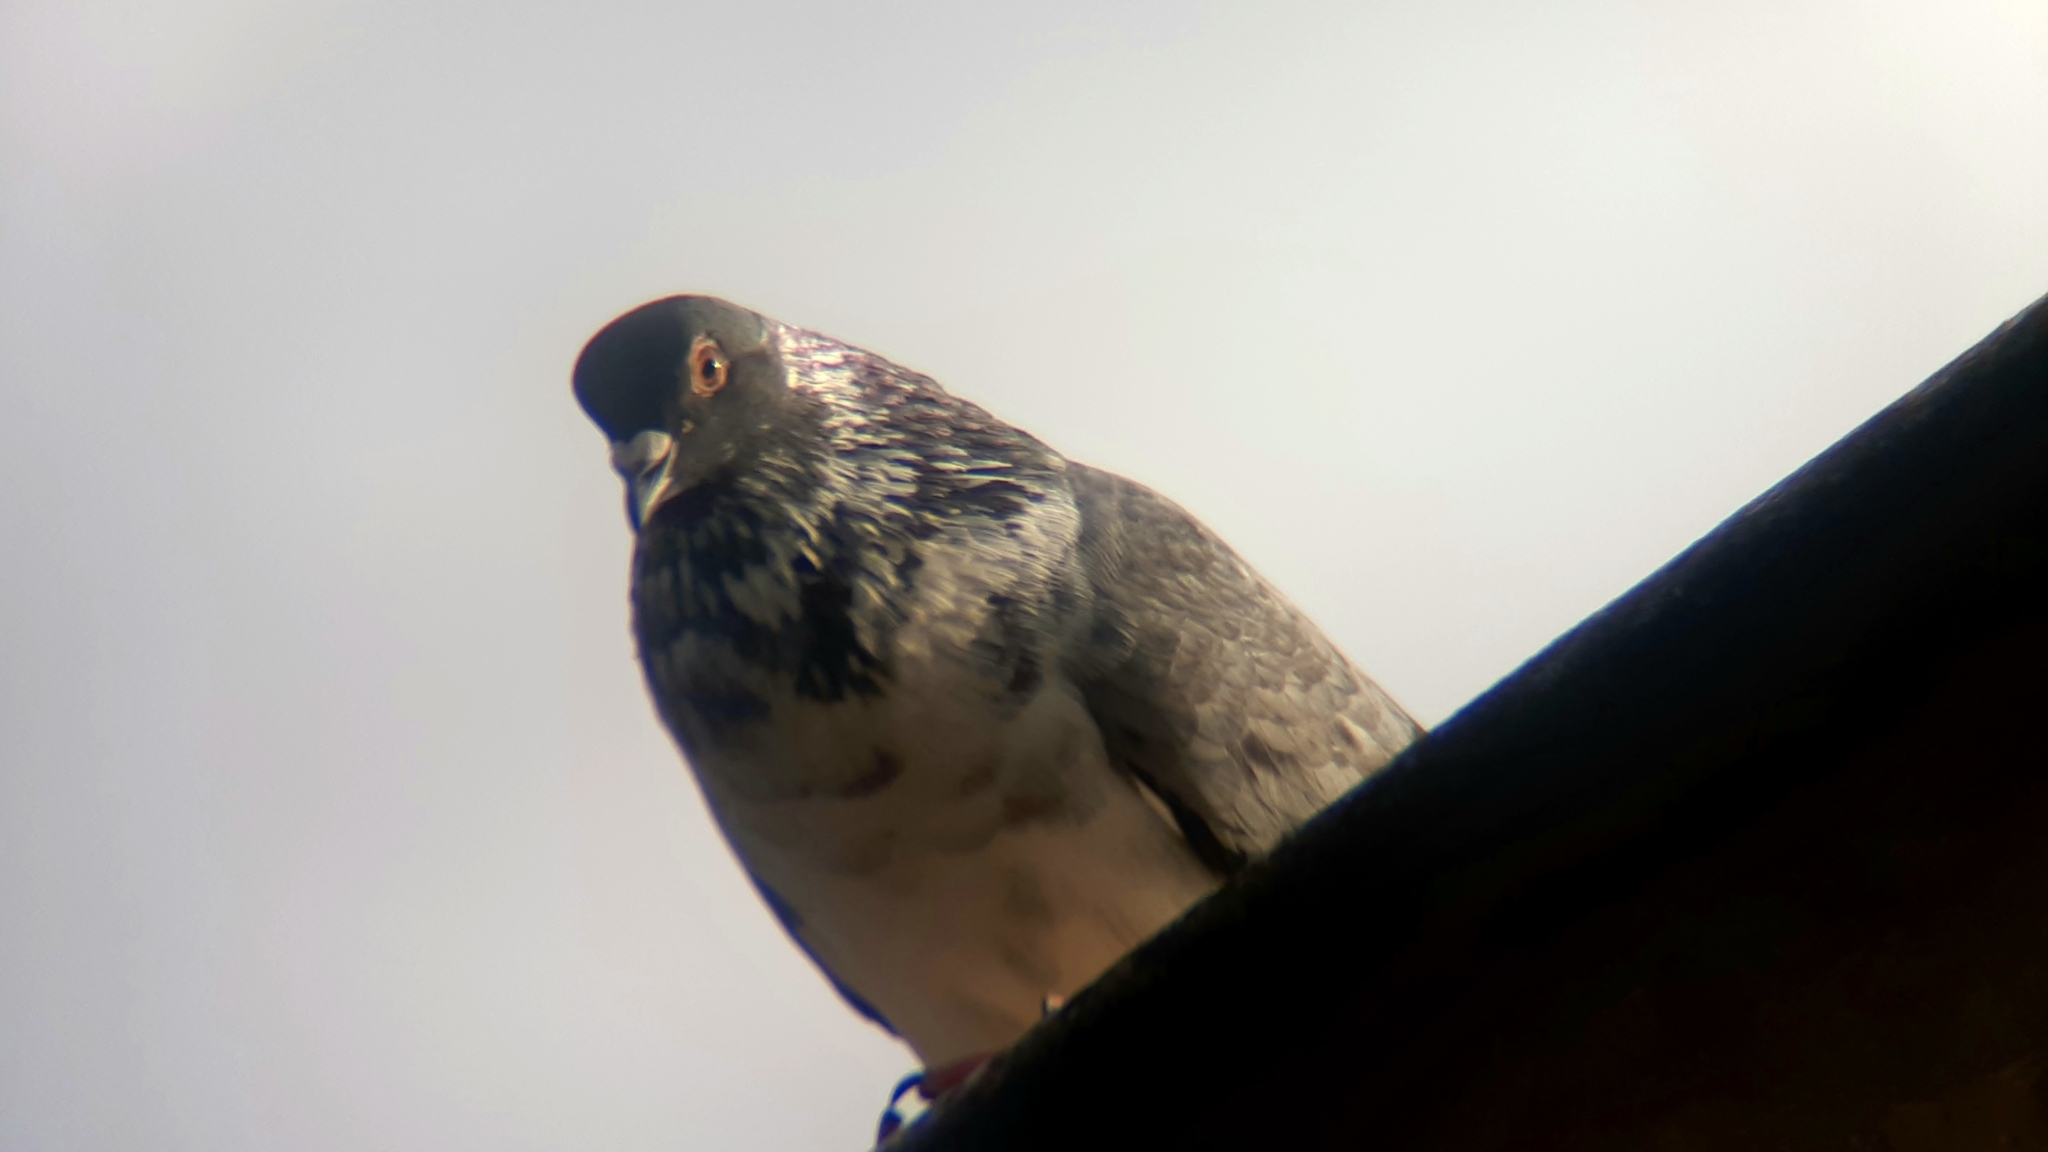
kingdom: Animalia
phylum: Chordata
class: Aves
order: Columbiformes
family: Columbidae
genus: Columba
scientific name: Columba livia
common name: Rock pigeon
